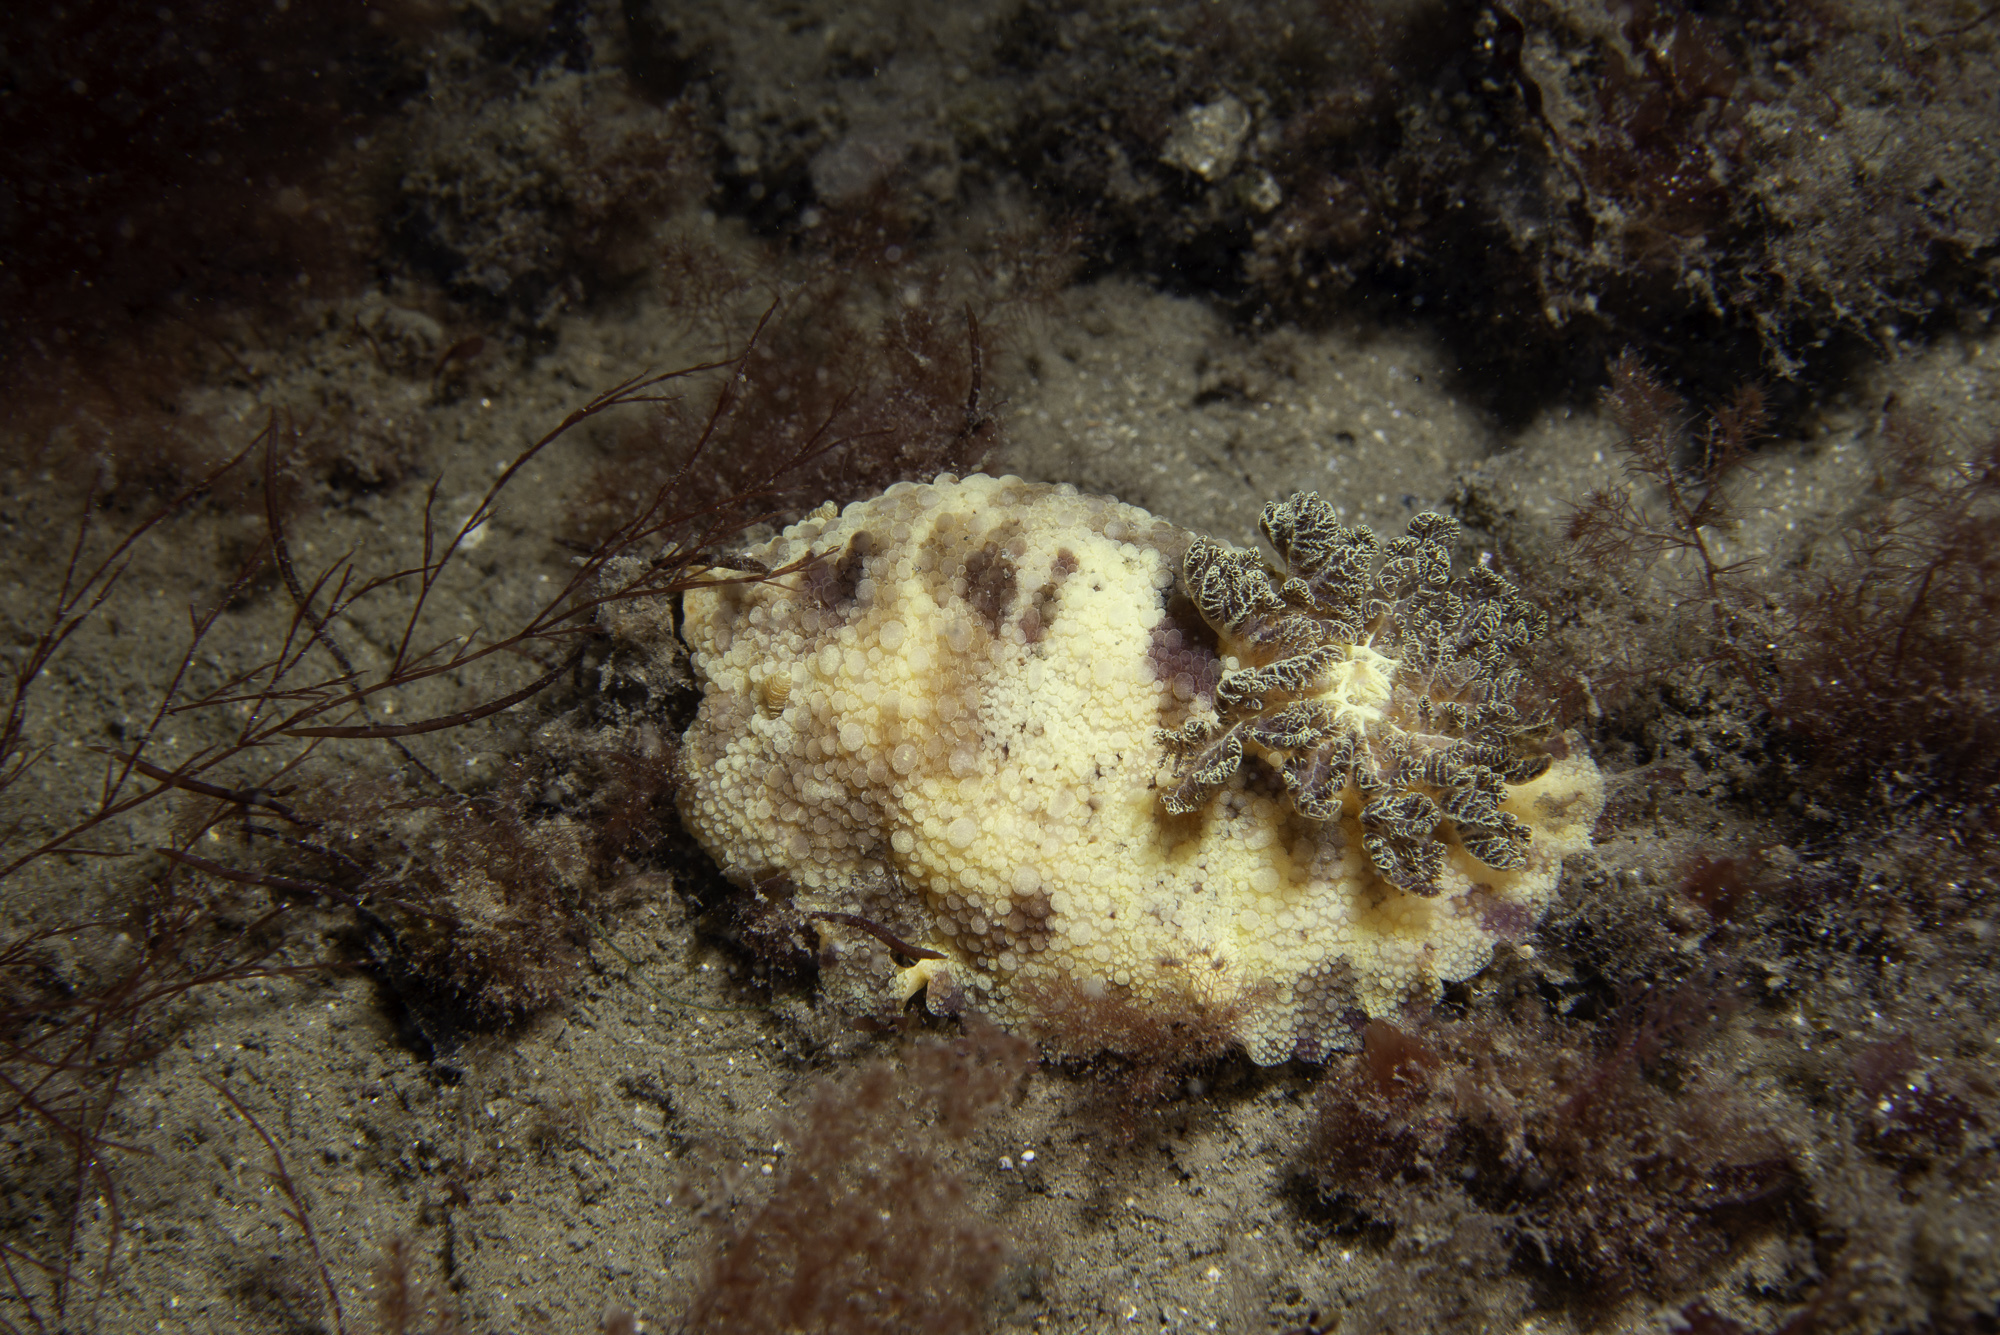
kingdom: Animalia
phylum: Mollusca
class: Gastropoda
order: Nudibranchia
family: Dorididae
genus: Doris
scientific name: Doris pseudoargus
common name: Sea lemon
